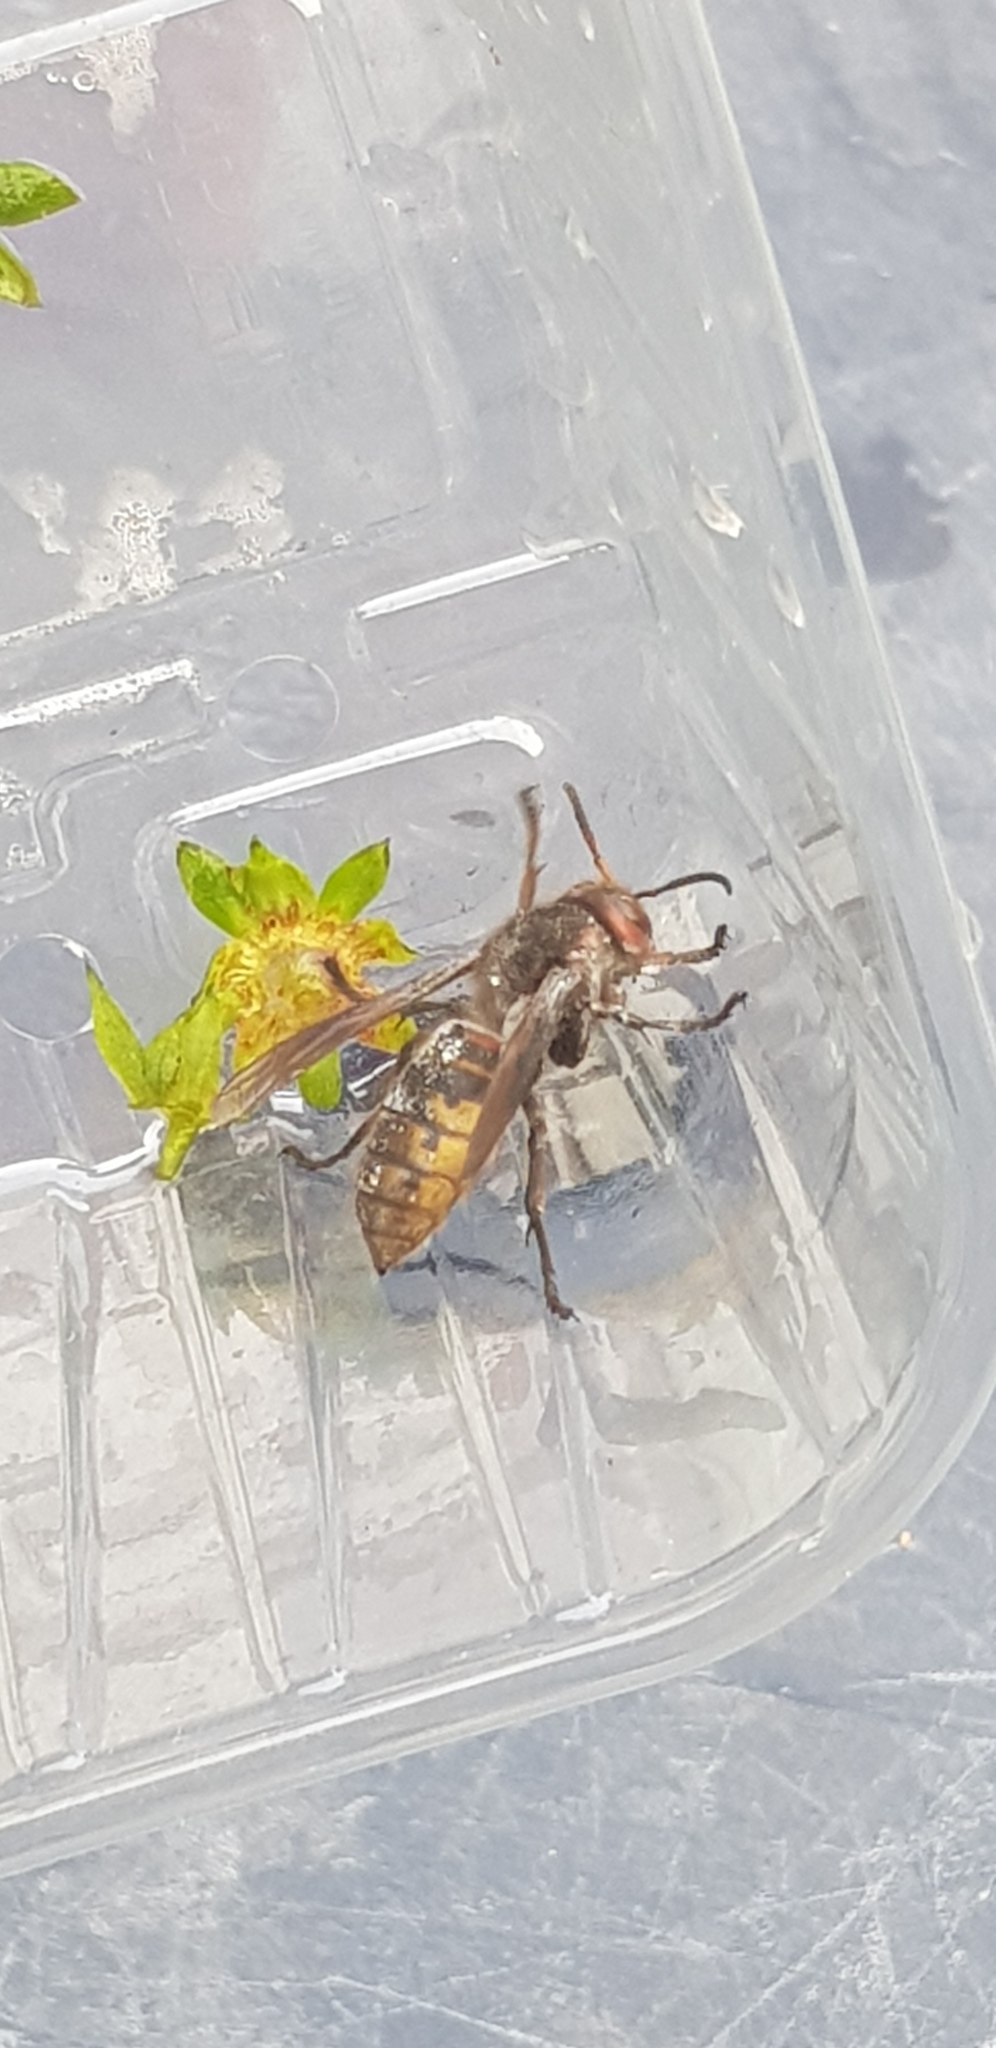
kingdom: Animalia
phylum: Arthropoda
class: Insecta
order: Hymenoptera
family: Vespidae
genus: Vespa
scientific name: Vespa crabro
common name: Hornet
